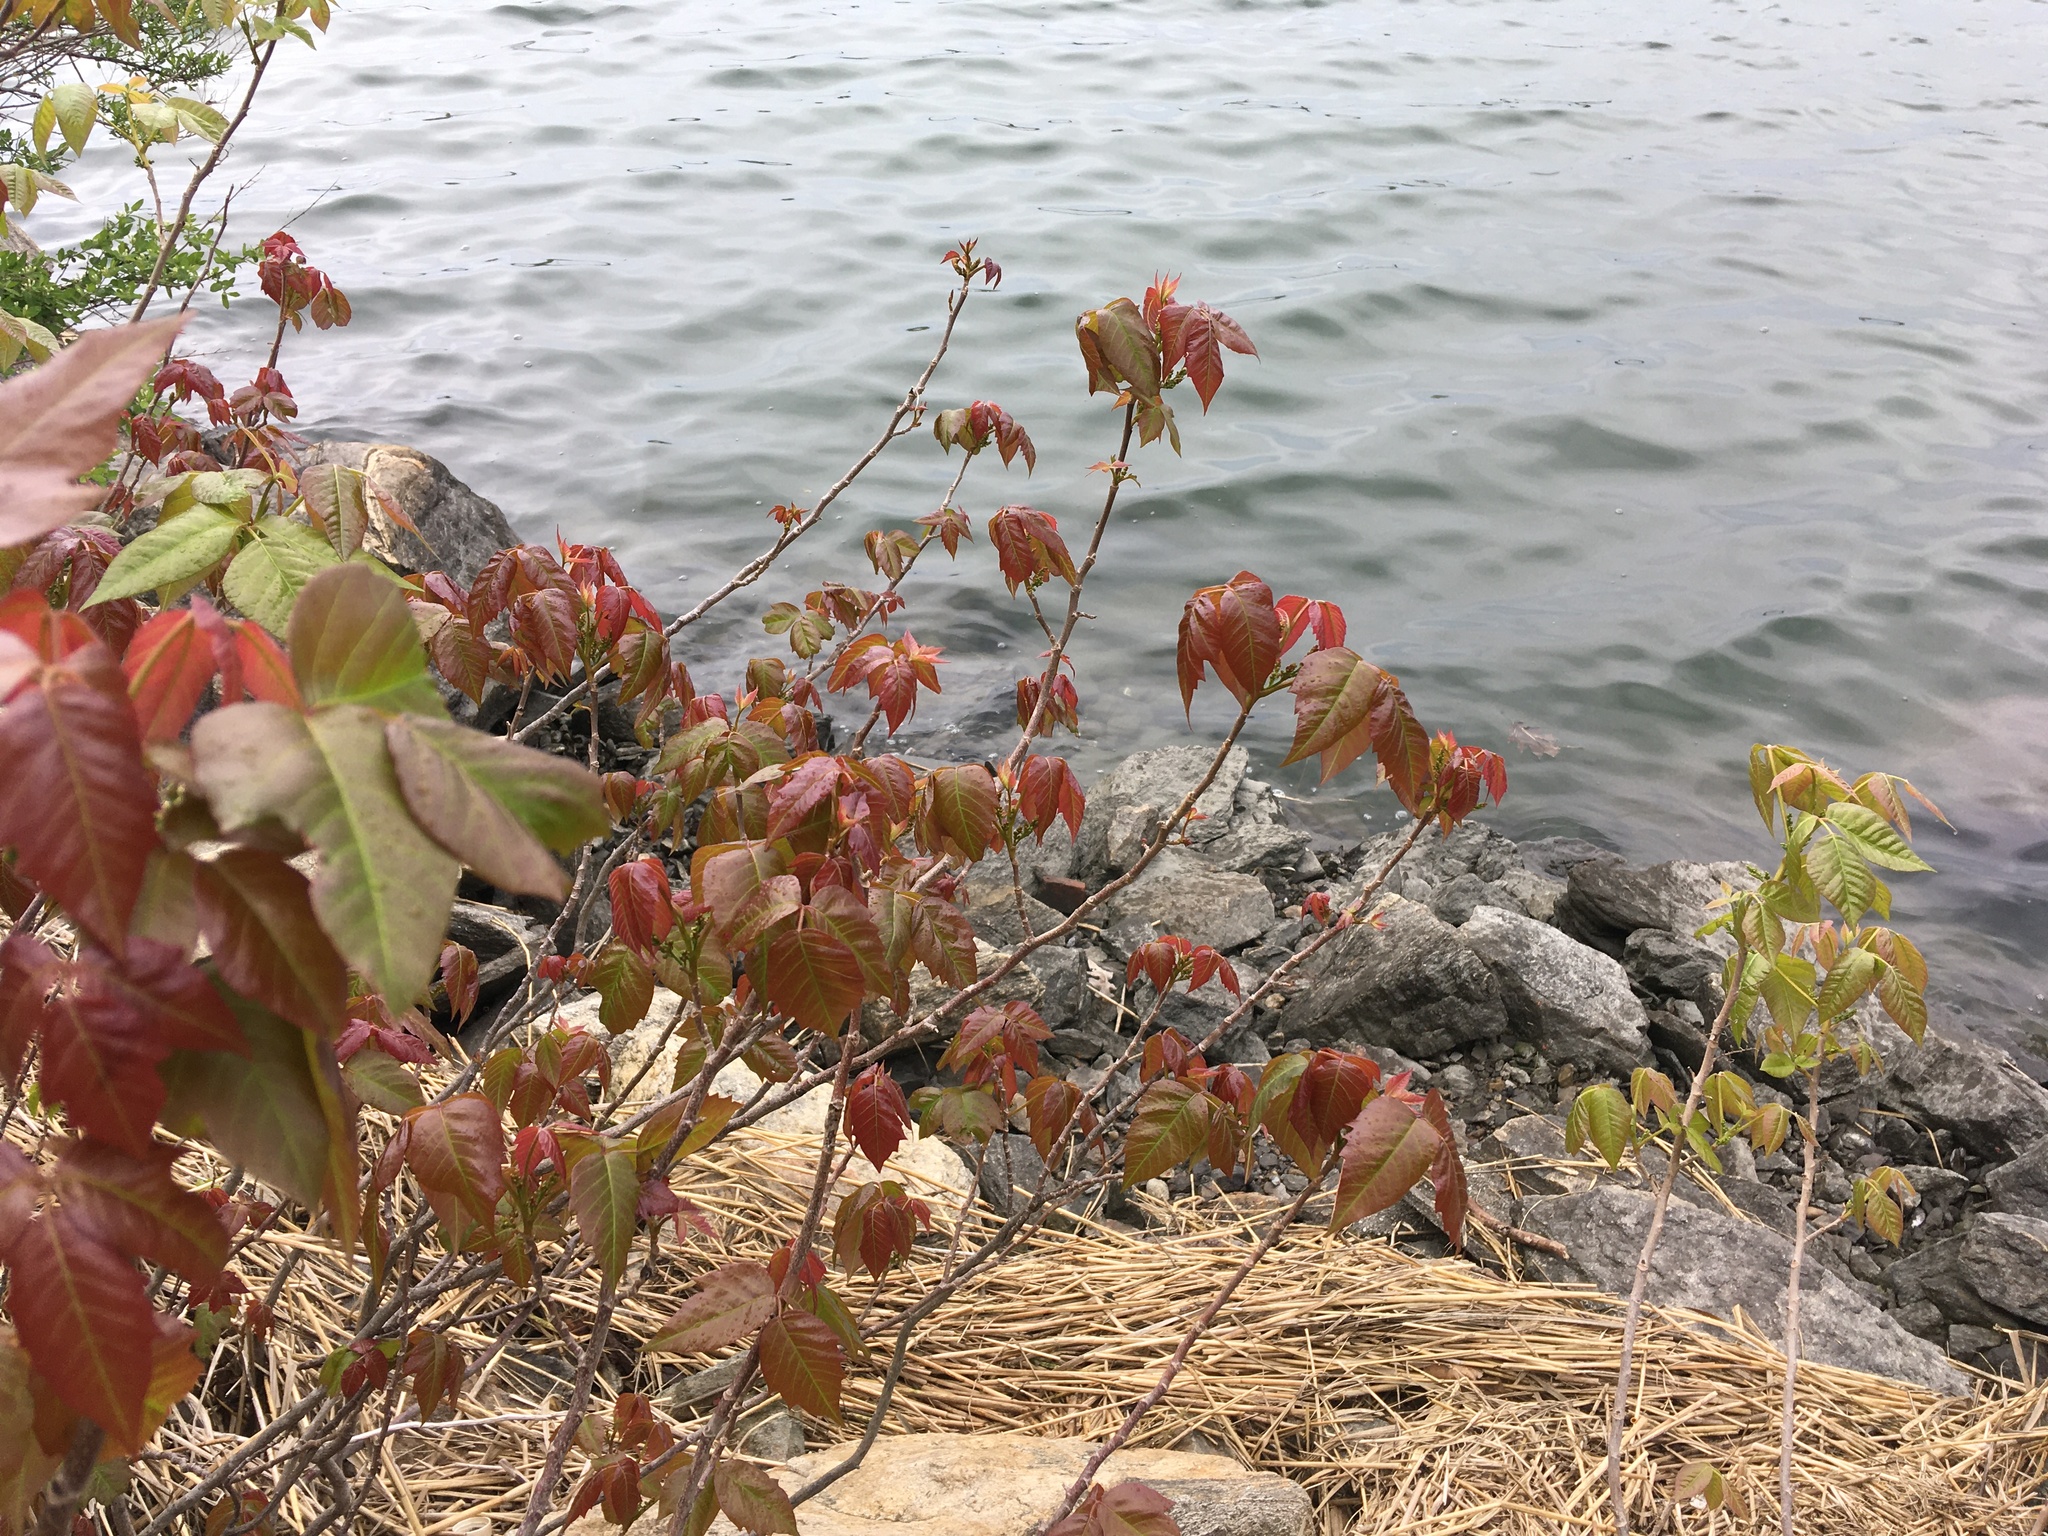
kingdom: Plantae
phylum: Tracheophyta
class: Magnoliopsida
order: Sapindales
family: Anacardiaceae
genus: Toxicodendron
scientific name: Toxicodendron radicans
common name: Poison ivy
